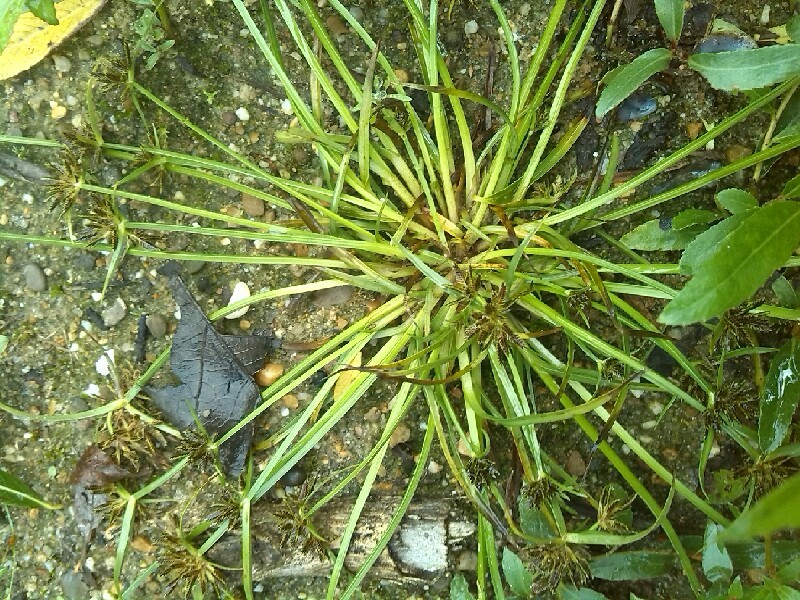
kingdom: Plantae
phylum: Tracheophyta
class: Liliopsida
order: Poales
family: Cyperaceae
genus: Cyperus
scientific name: Cyperus fuscus
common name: Brown galingale
